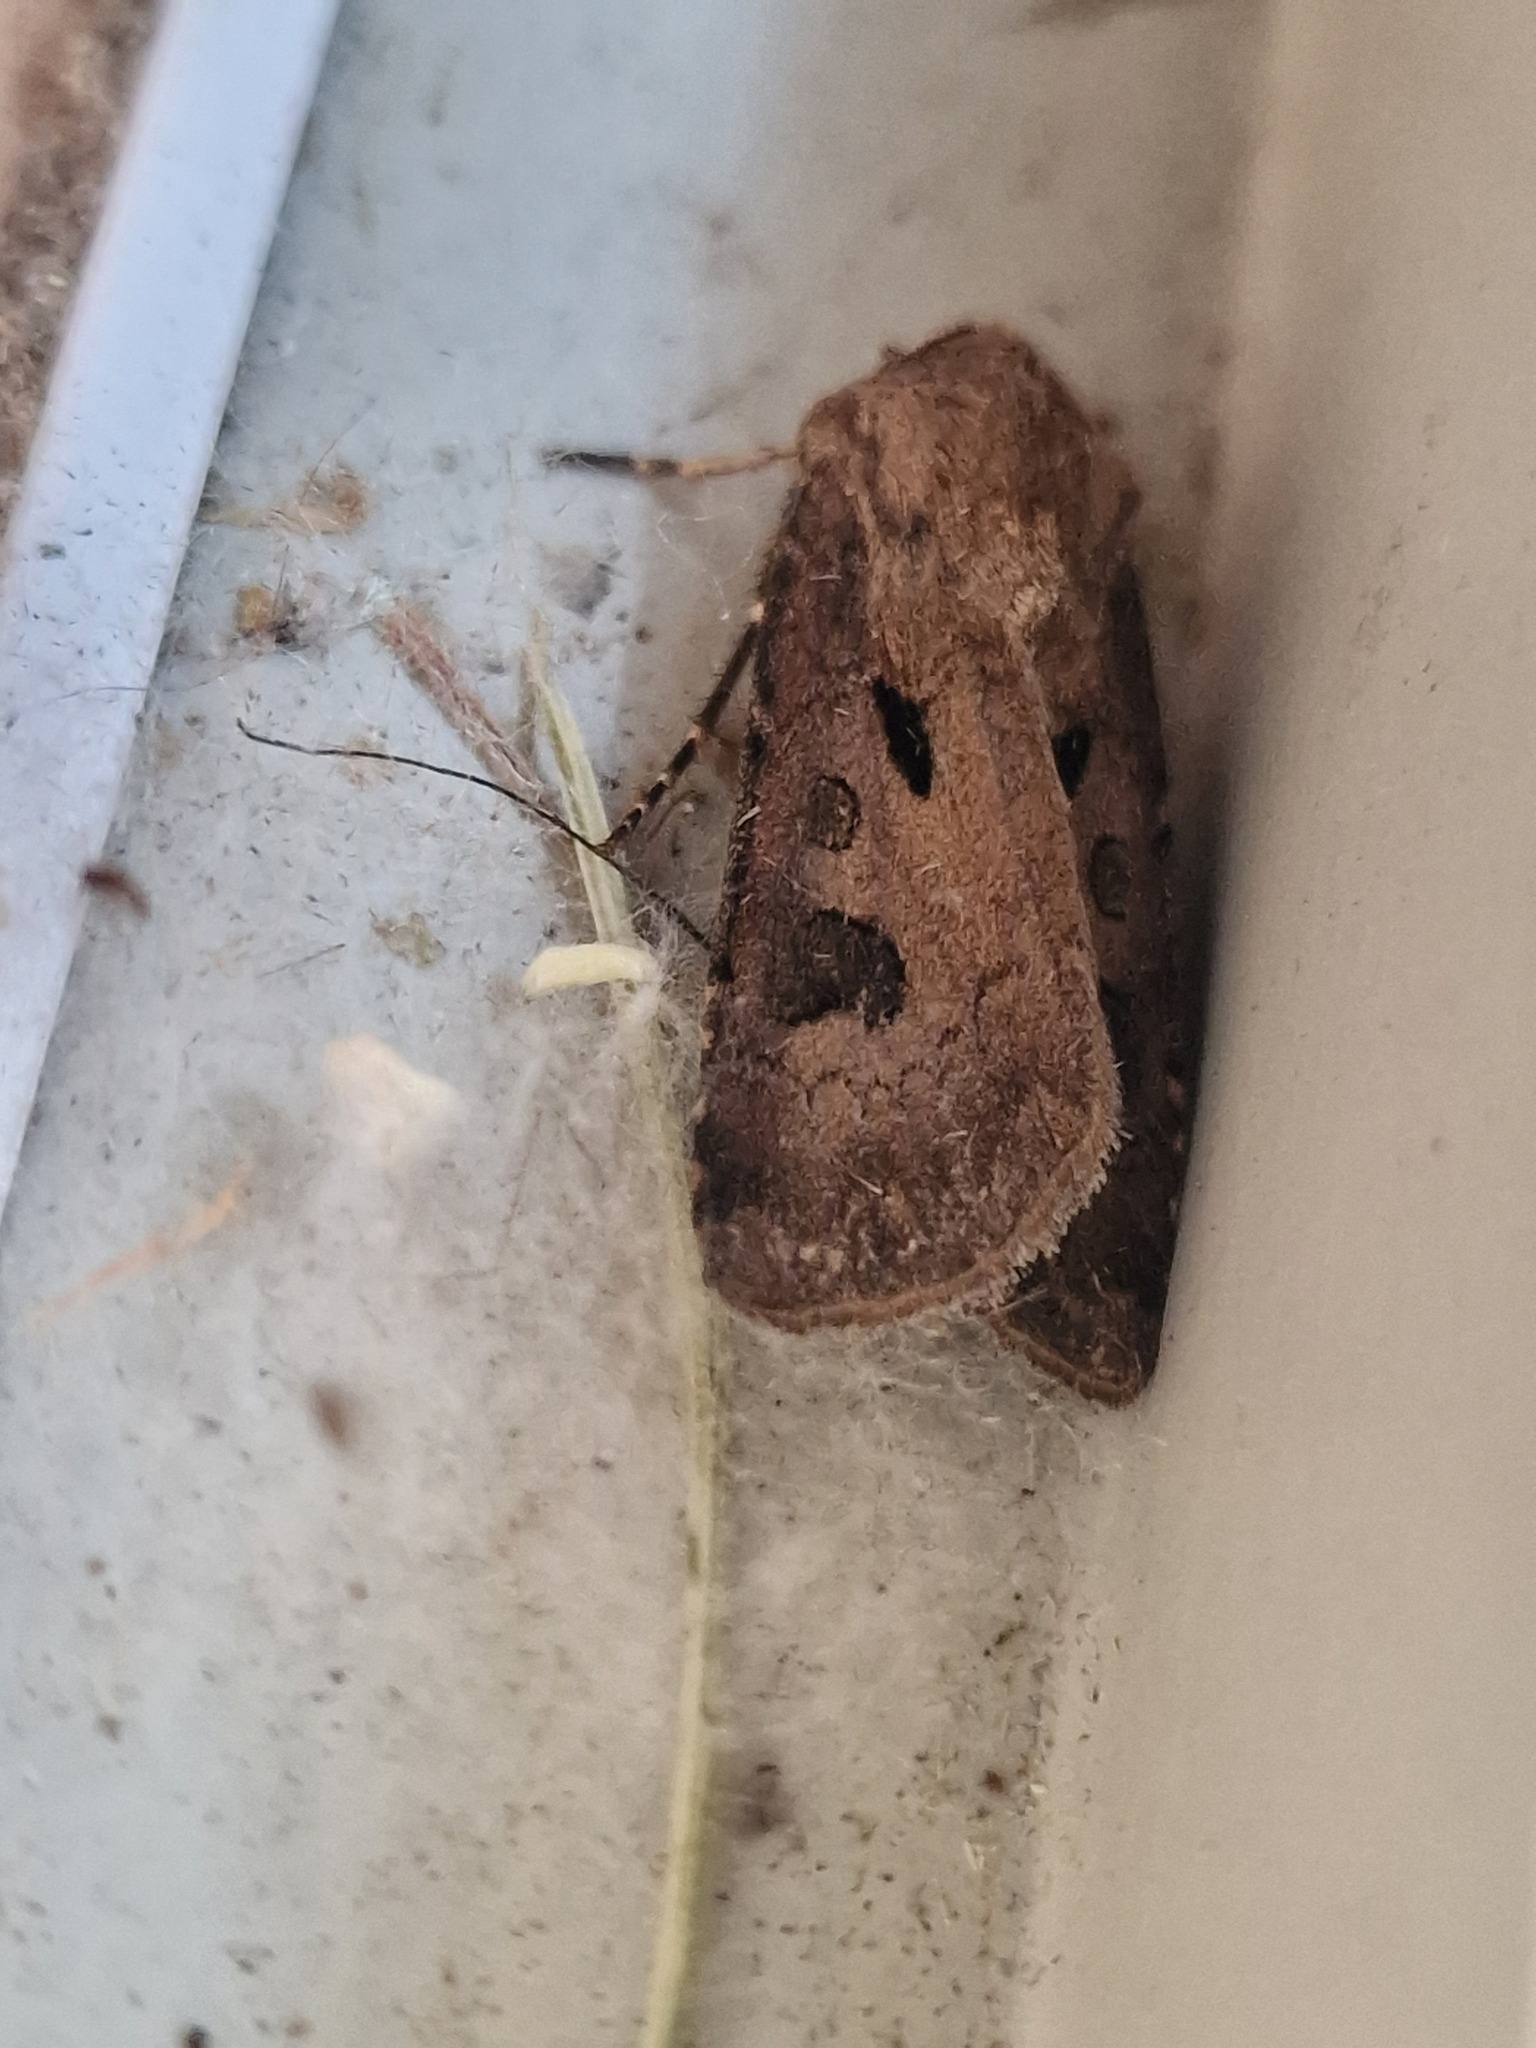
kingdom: Animalia
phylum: Arthropoda
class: Insecta
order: Lepidoptera
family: Noctuidae
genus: Agrotis
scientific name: Agrotis exclamationis
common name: Heart and dart
